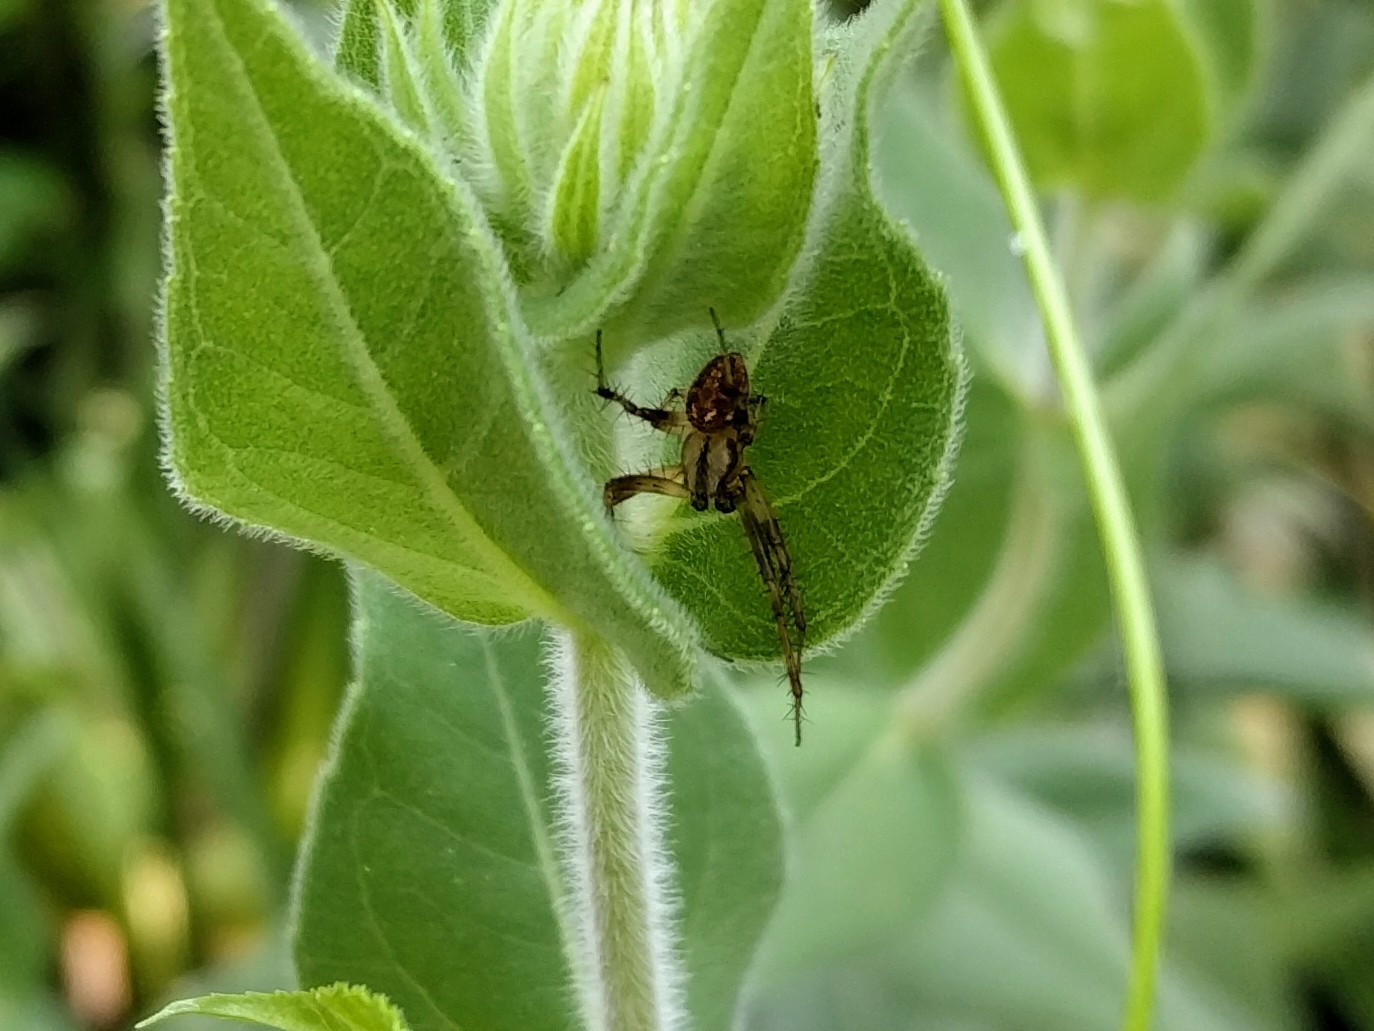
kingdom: Animalia
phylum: Arthropoda
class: Arachnida
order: Araneae
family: Araneidae
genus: Neoscona
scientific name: Neoscona arabesca
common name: Orb weavers
